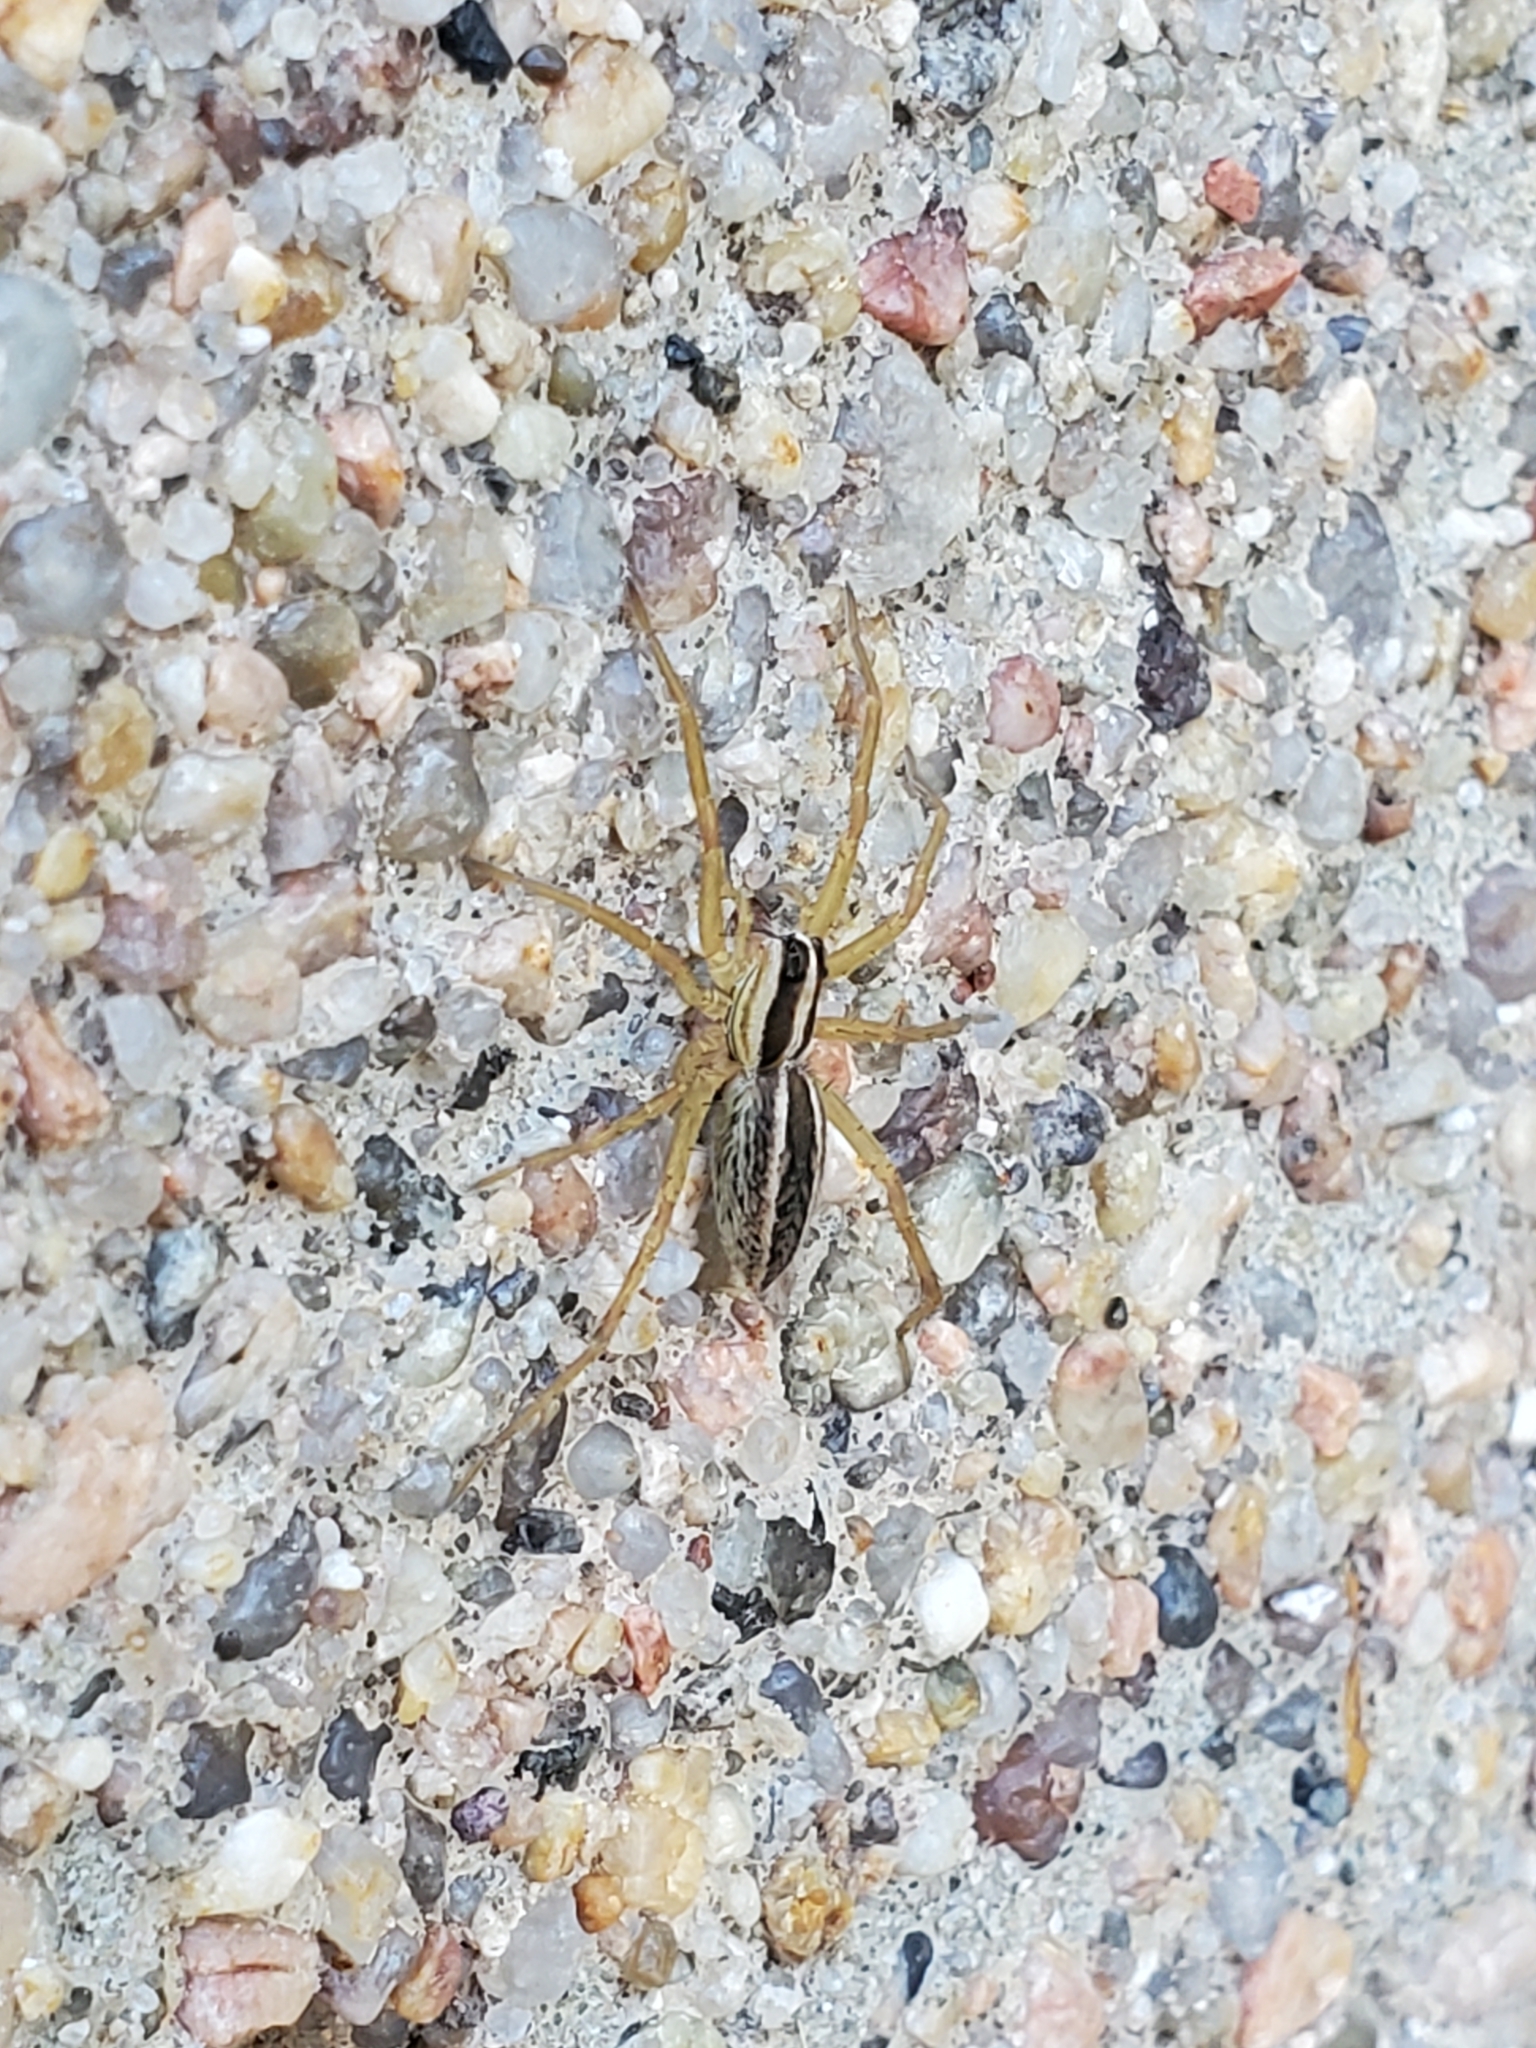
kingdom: Animalia
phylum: Arthropoda
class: Arachnida
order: Araneae
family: Lycosidae
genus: Rabidosa
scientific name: Rabidosa rabida
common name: Rabid wolf spider
